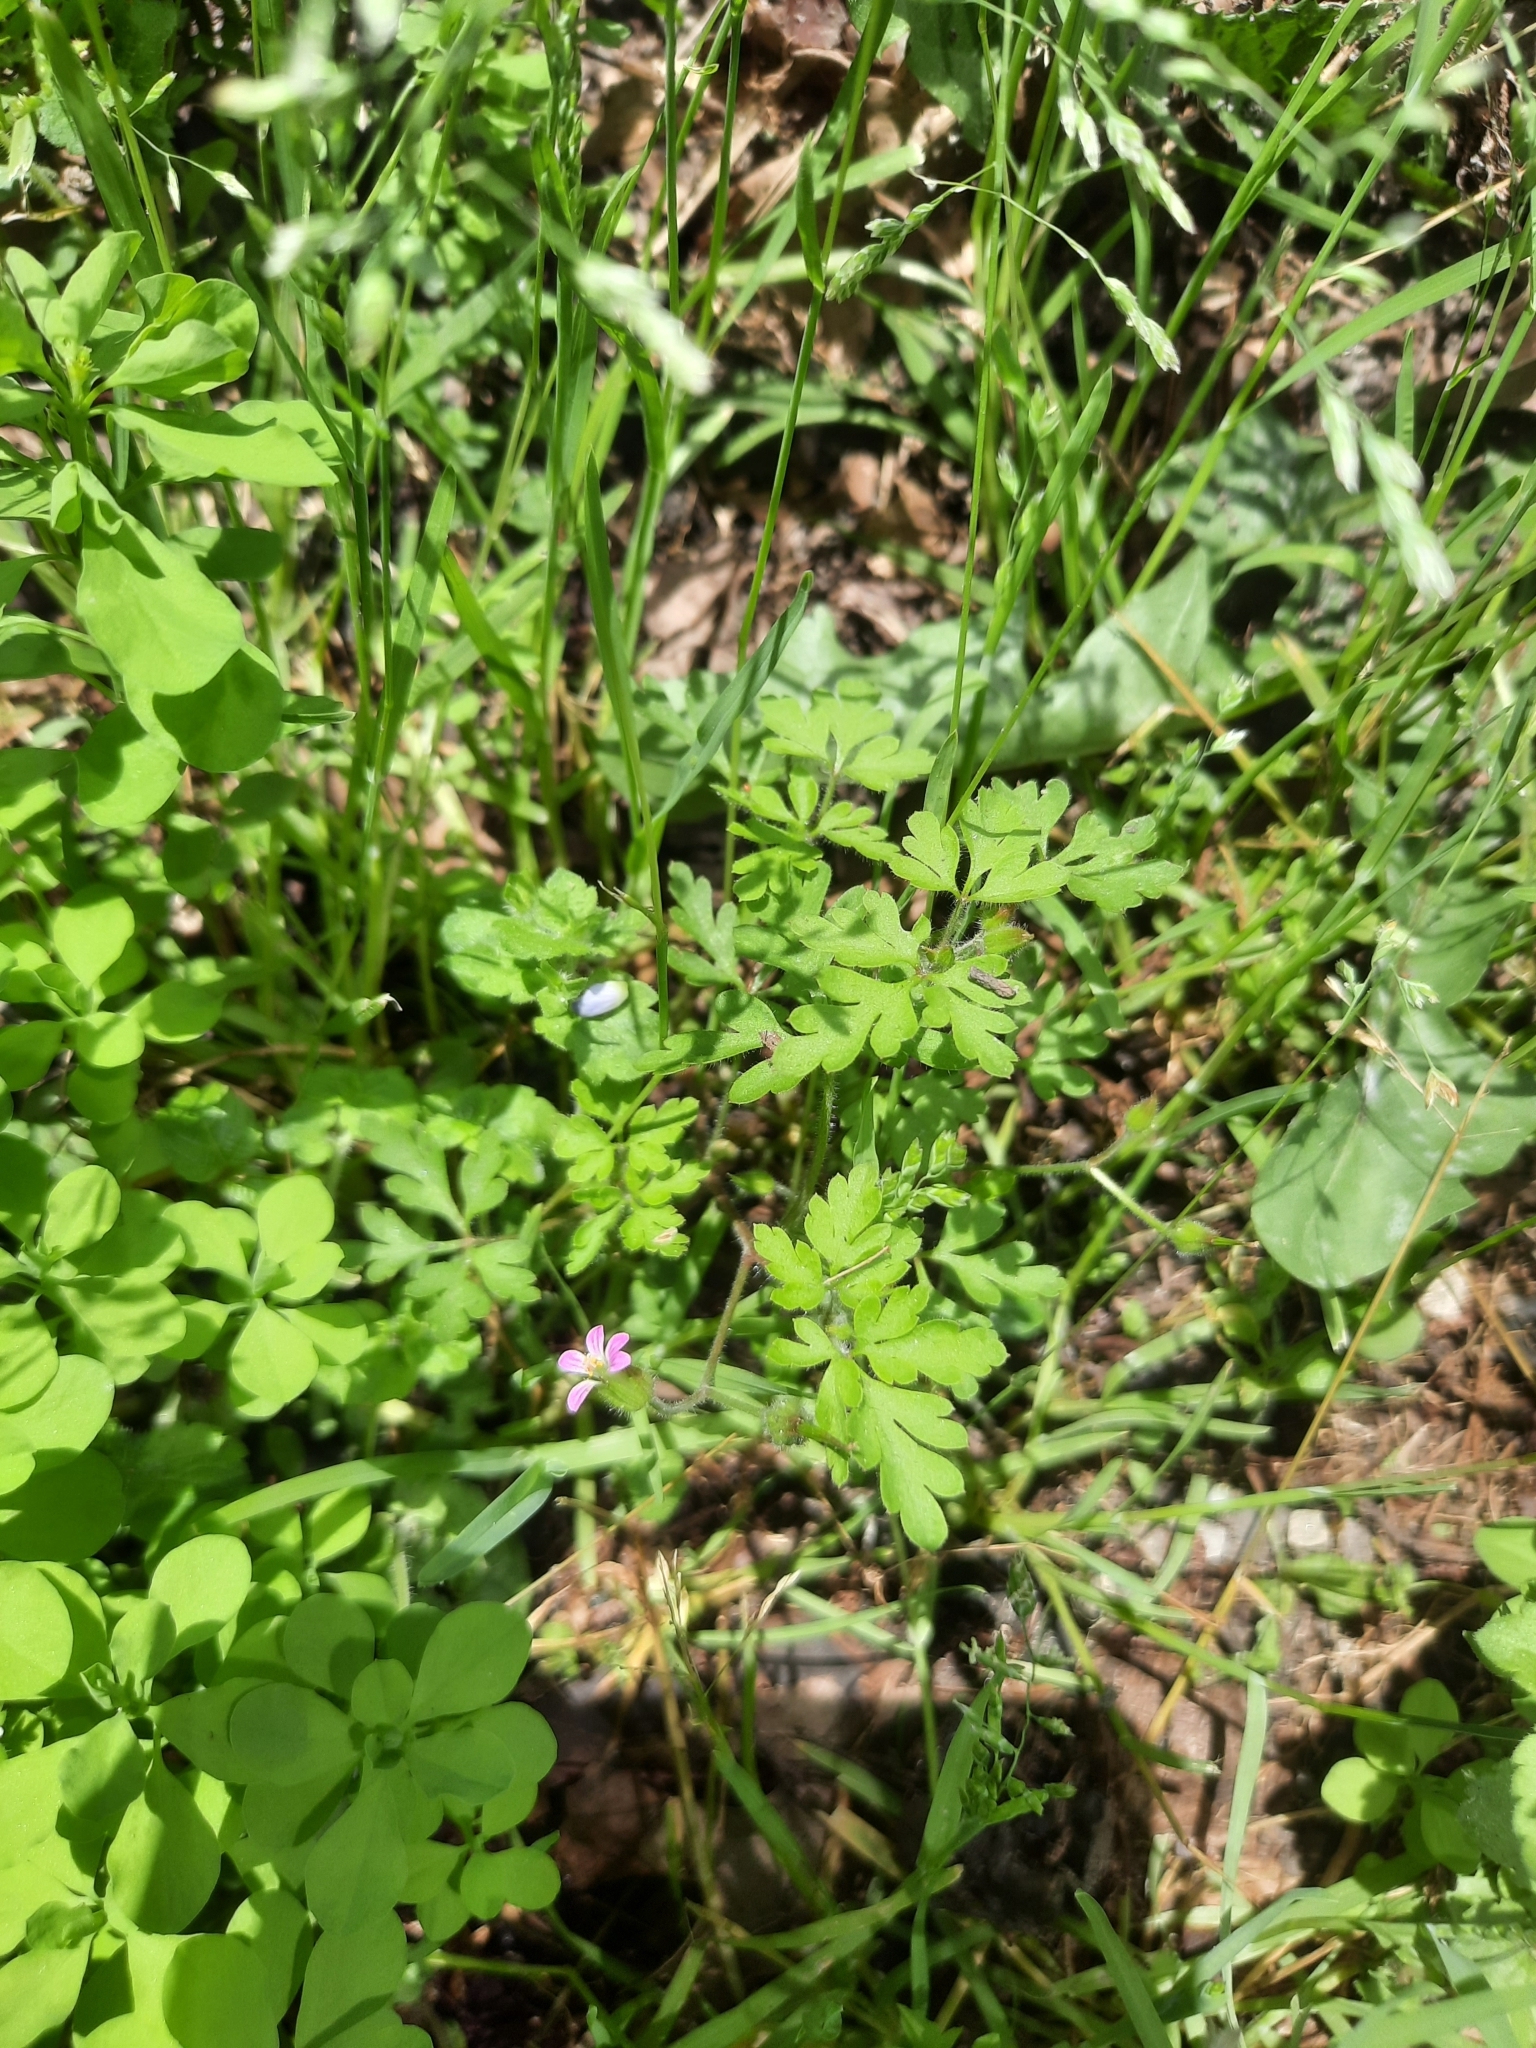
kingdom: Plantae
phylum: Tracheophyta
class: Magnoliopsida
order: Geraniales
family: Geraniaceae
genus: Geranium
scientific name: Geranium purpureum
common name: Little-robin
